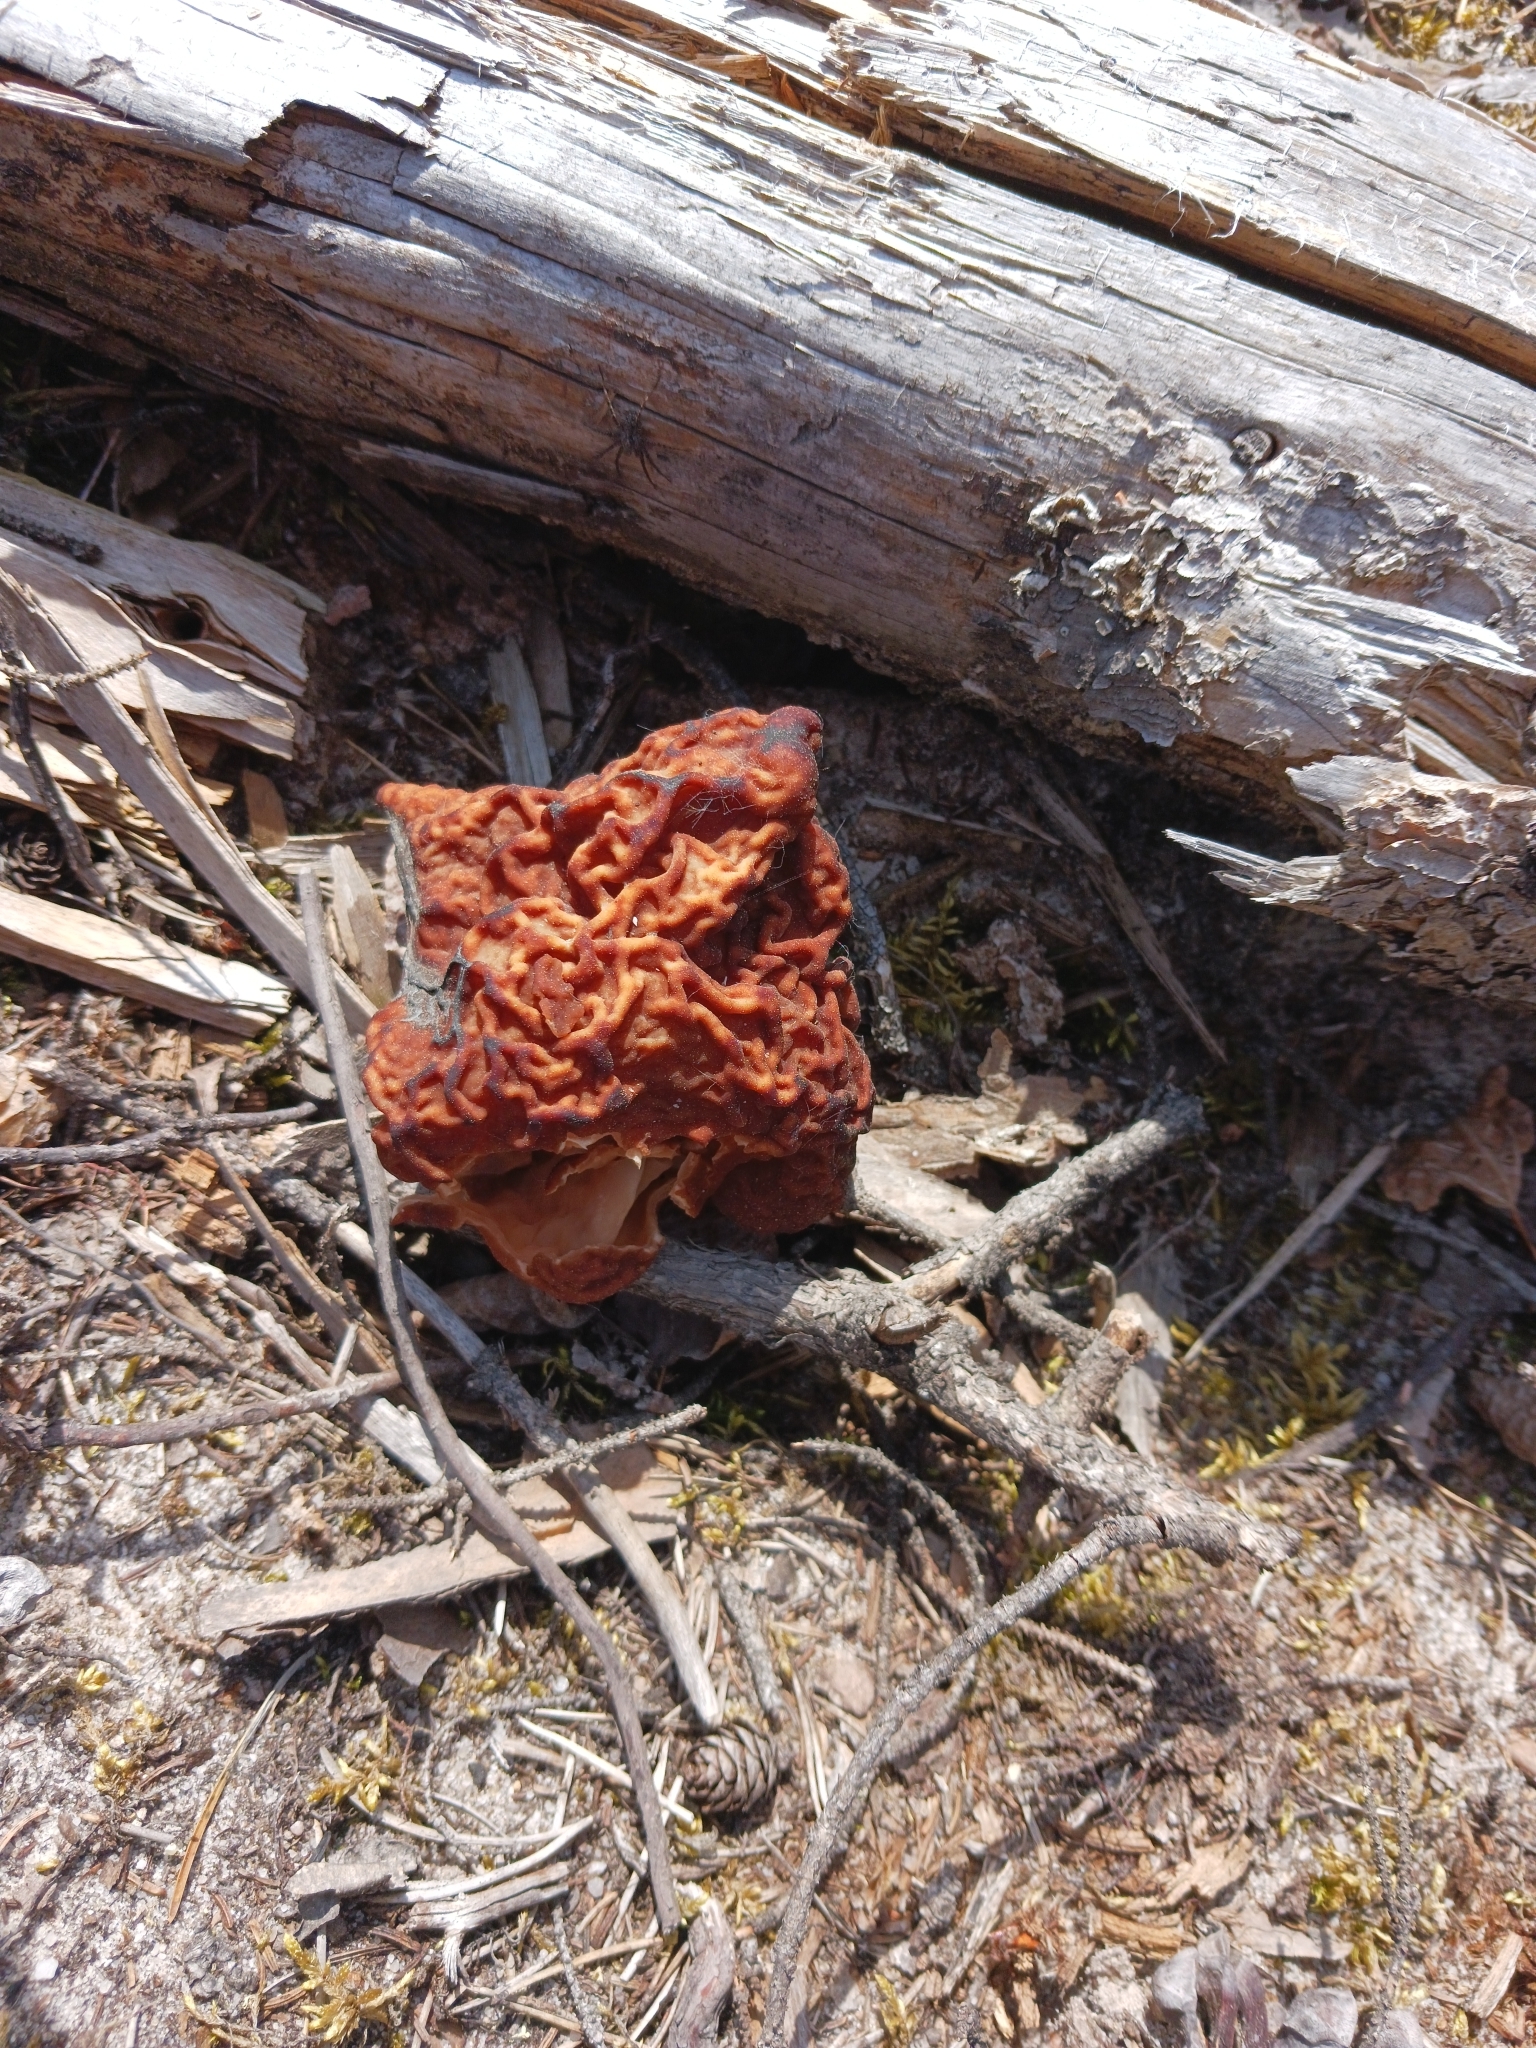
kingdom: Fungi
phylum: Ascomycota
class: Pezizomycetes
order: Pezizales
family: Discinaceae
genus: Gyromitra
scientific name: Gyromitra esculenta
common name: False morel
